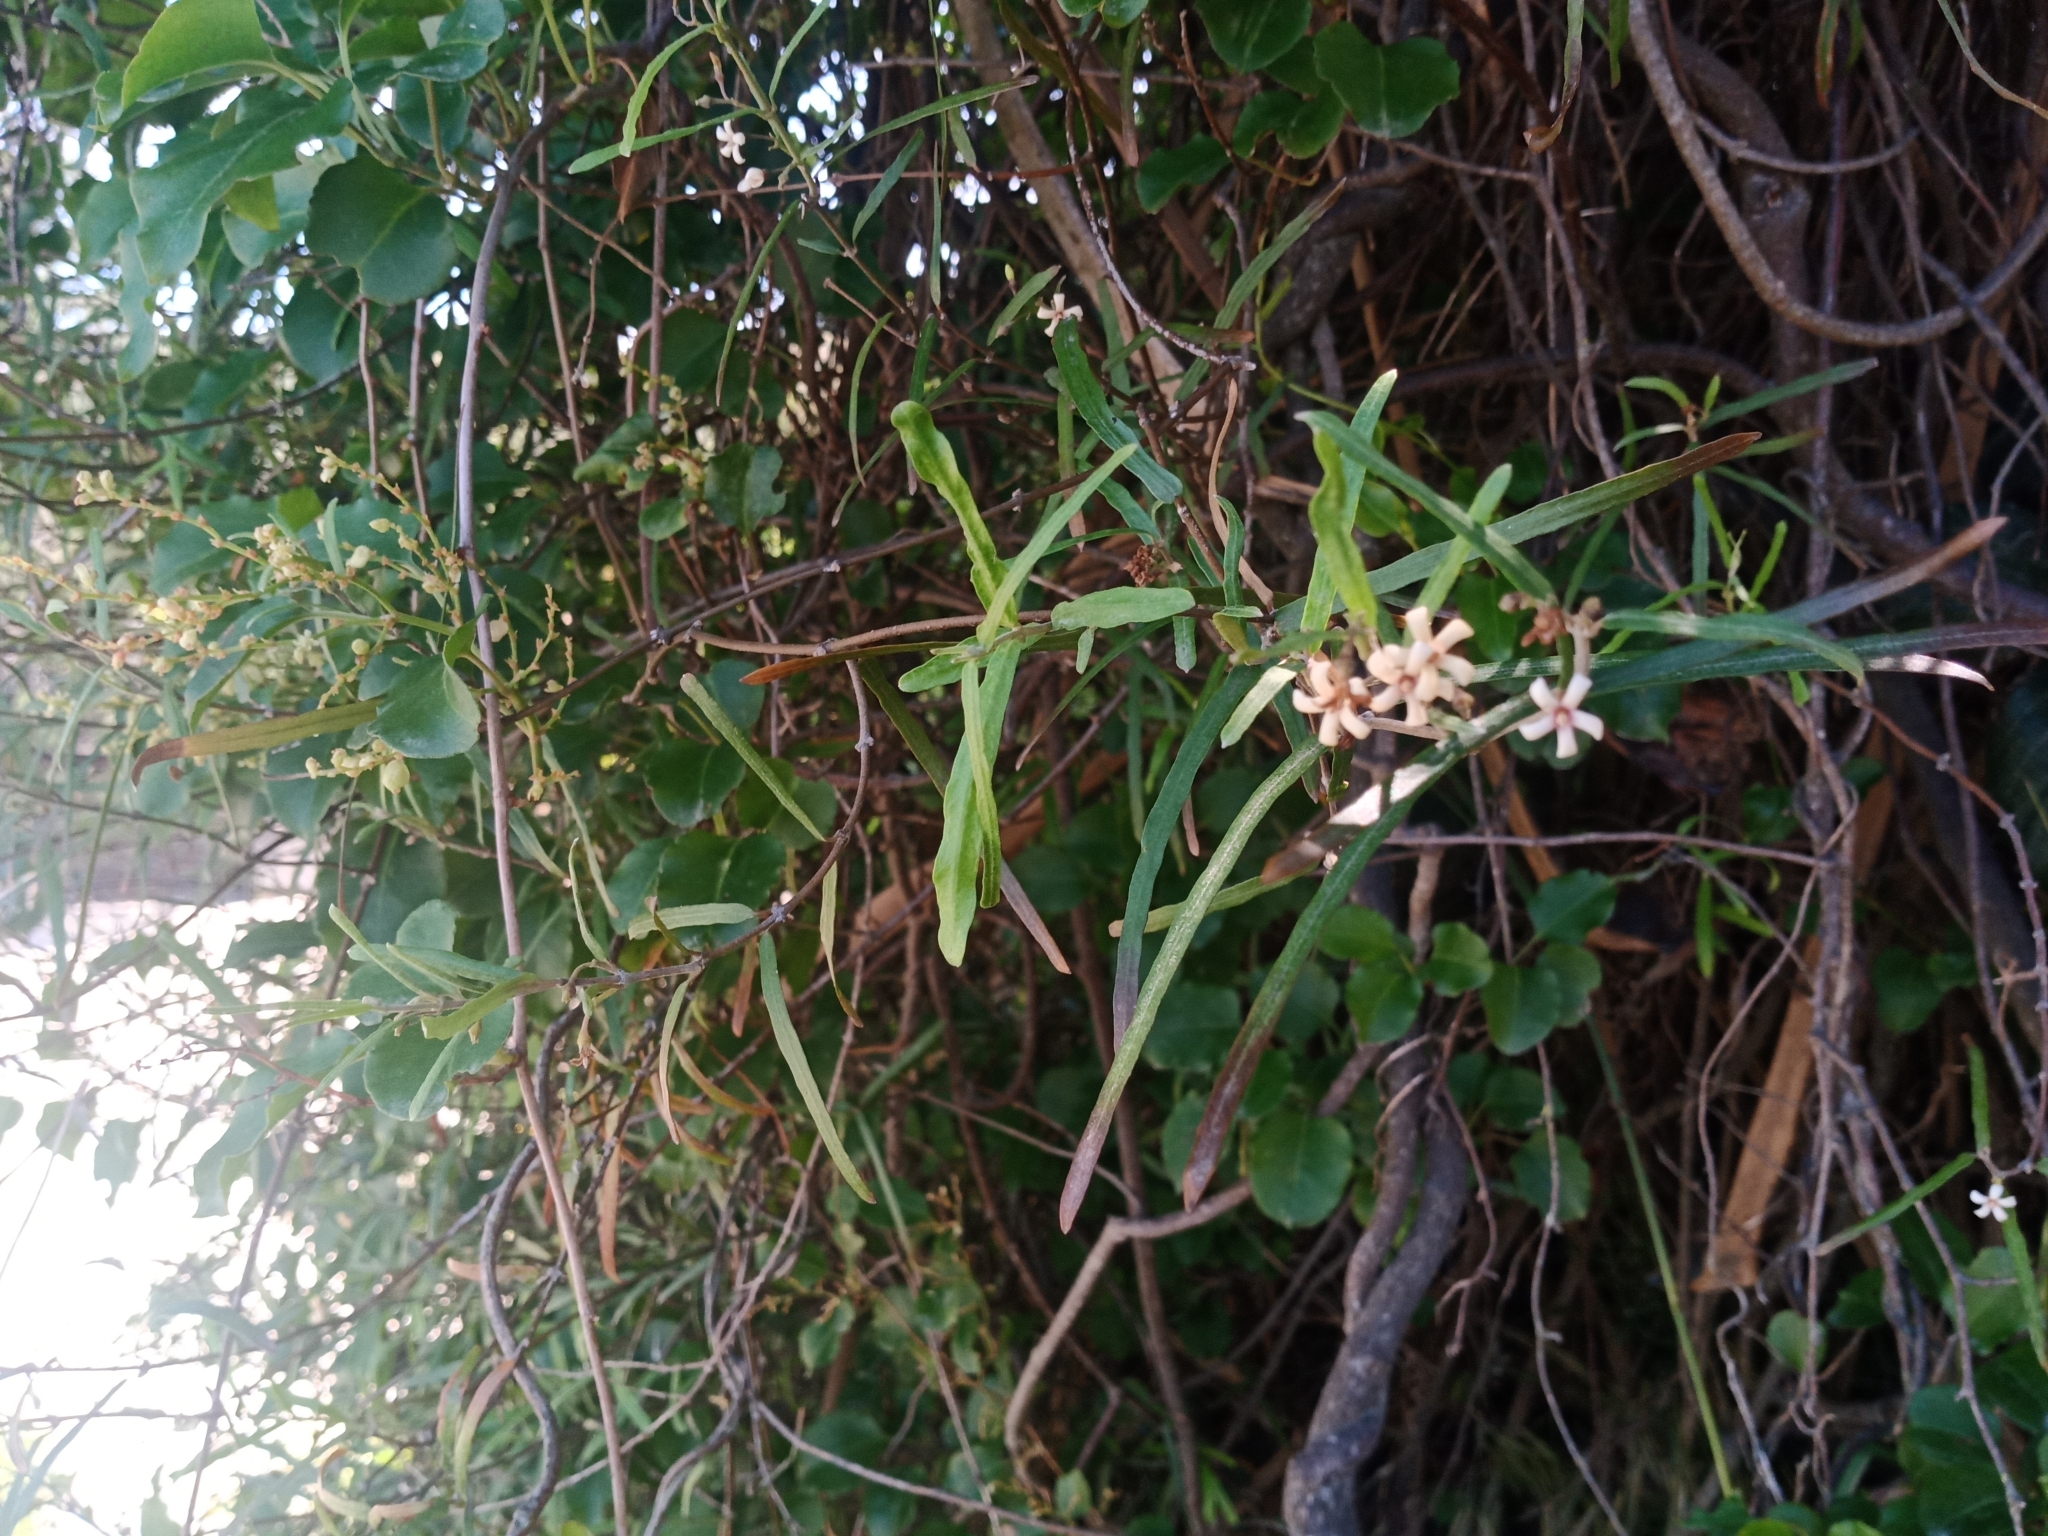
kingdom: Plantae
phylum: Tracheophyta
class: Magnoliopsida
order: Gentianales
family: Apocynaceae
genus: Parsonsia
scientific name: Parsonsia capsularis
